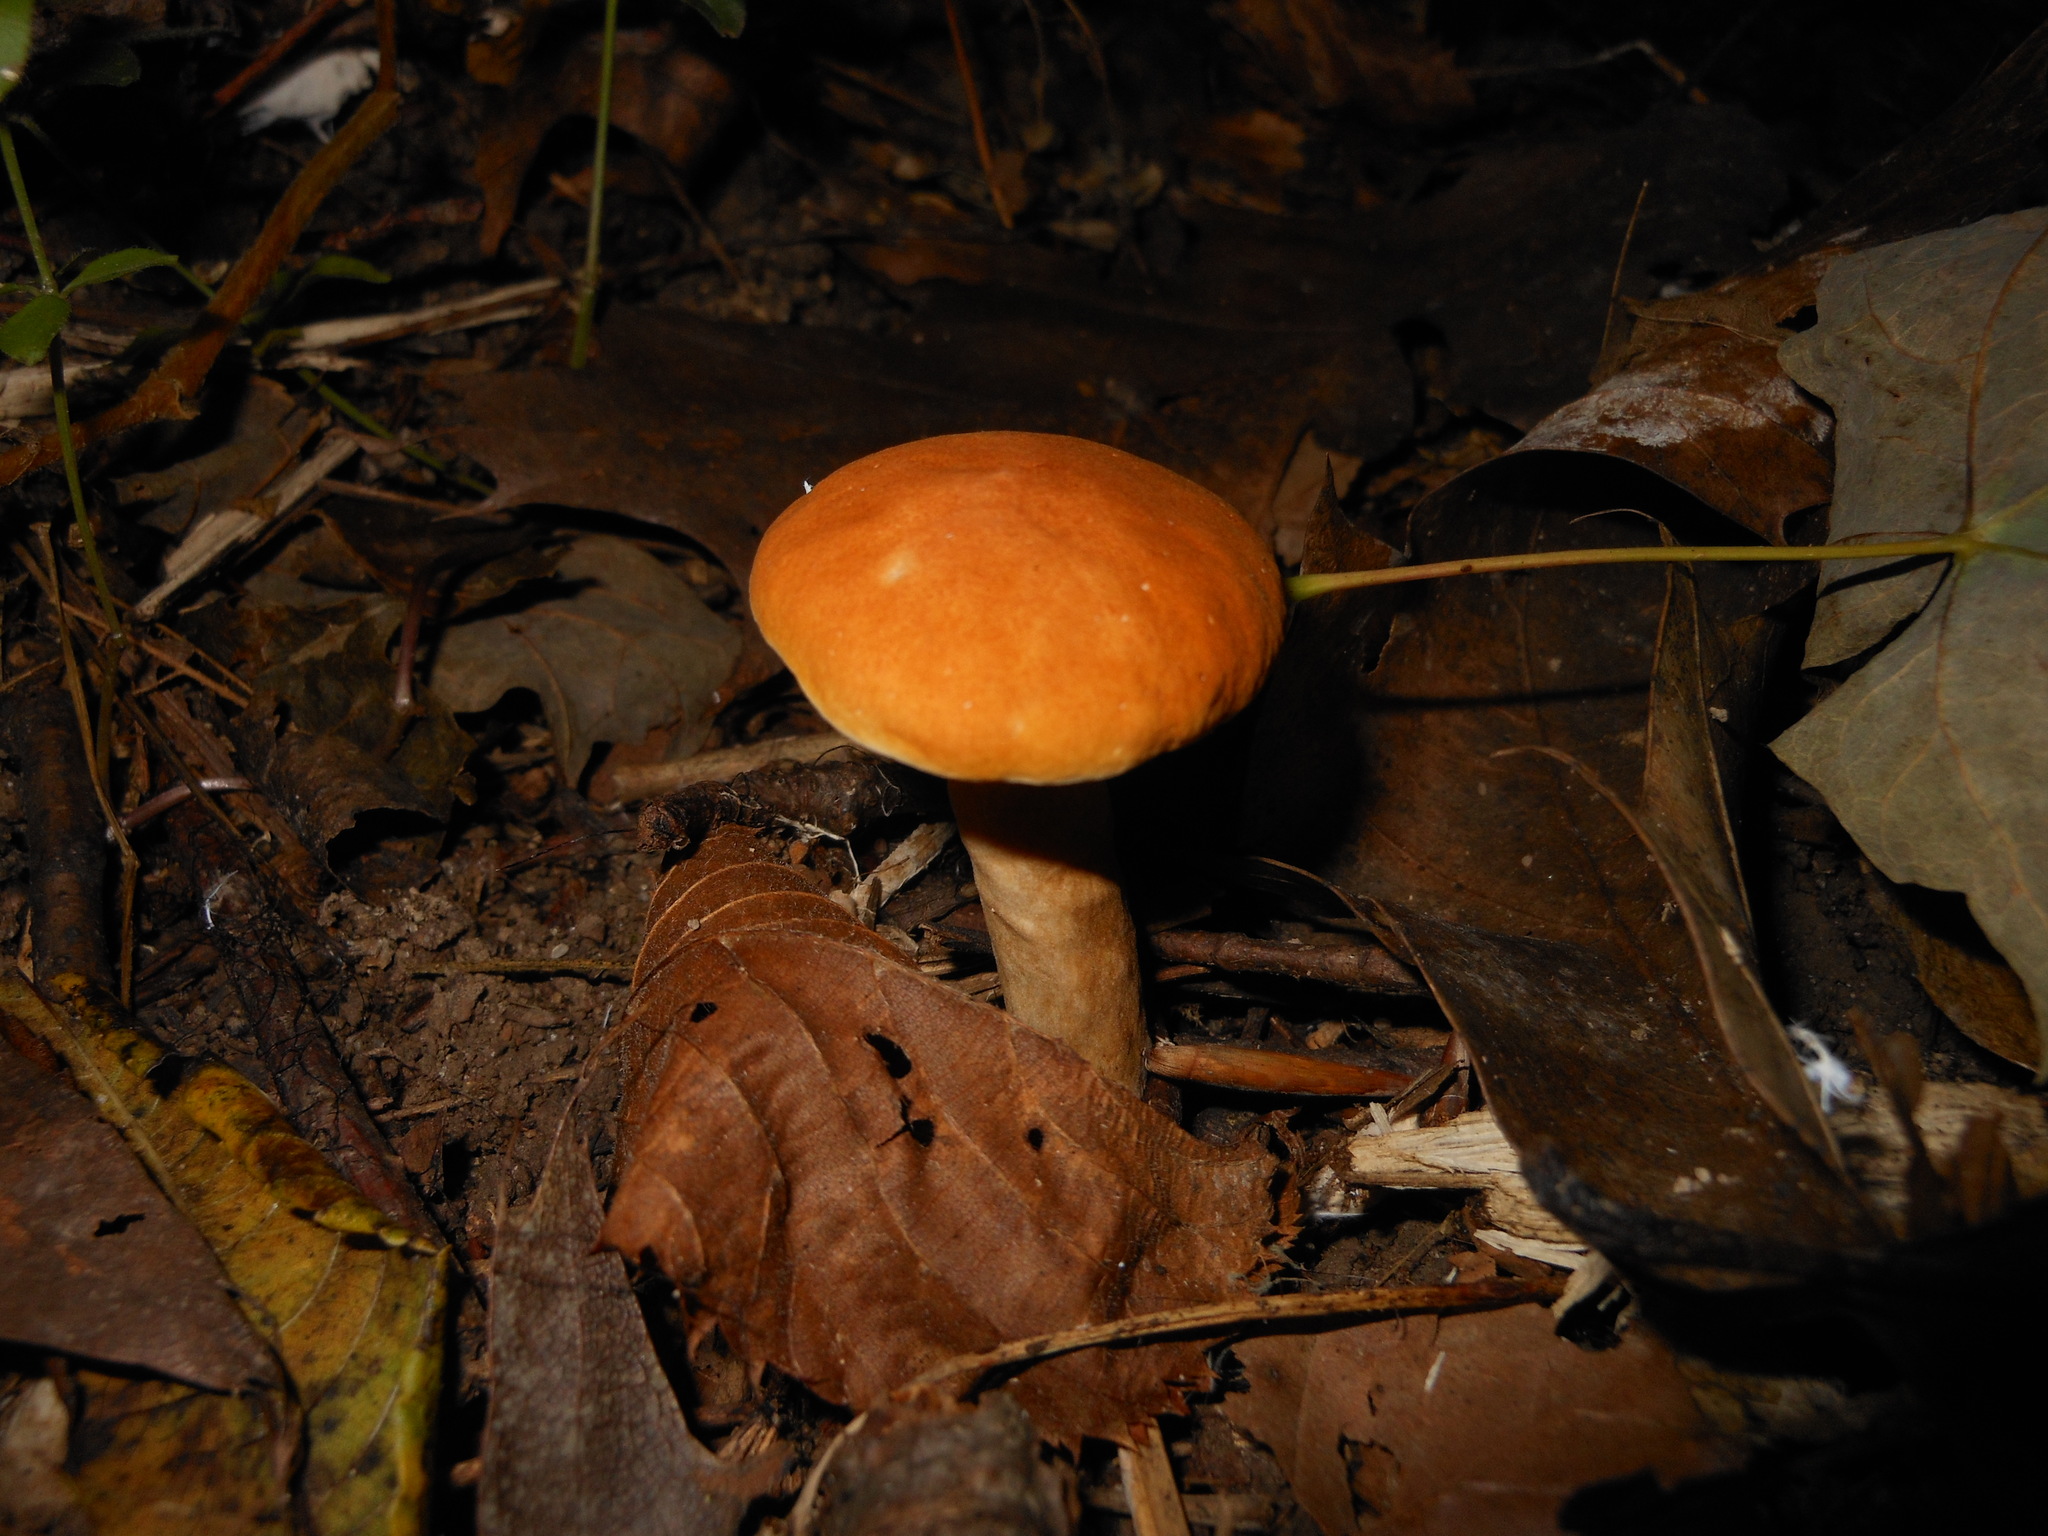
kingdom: Fungi
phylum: Basidiomycota
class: Agaricomycetes
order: Boletales
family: Gyroporaceae
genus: Gyroporus
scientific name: Gyroporus castaneus
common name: Chestnut bolete
